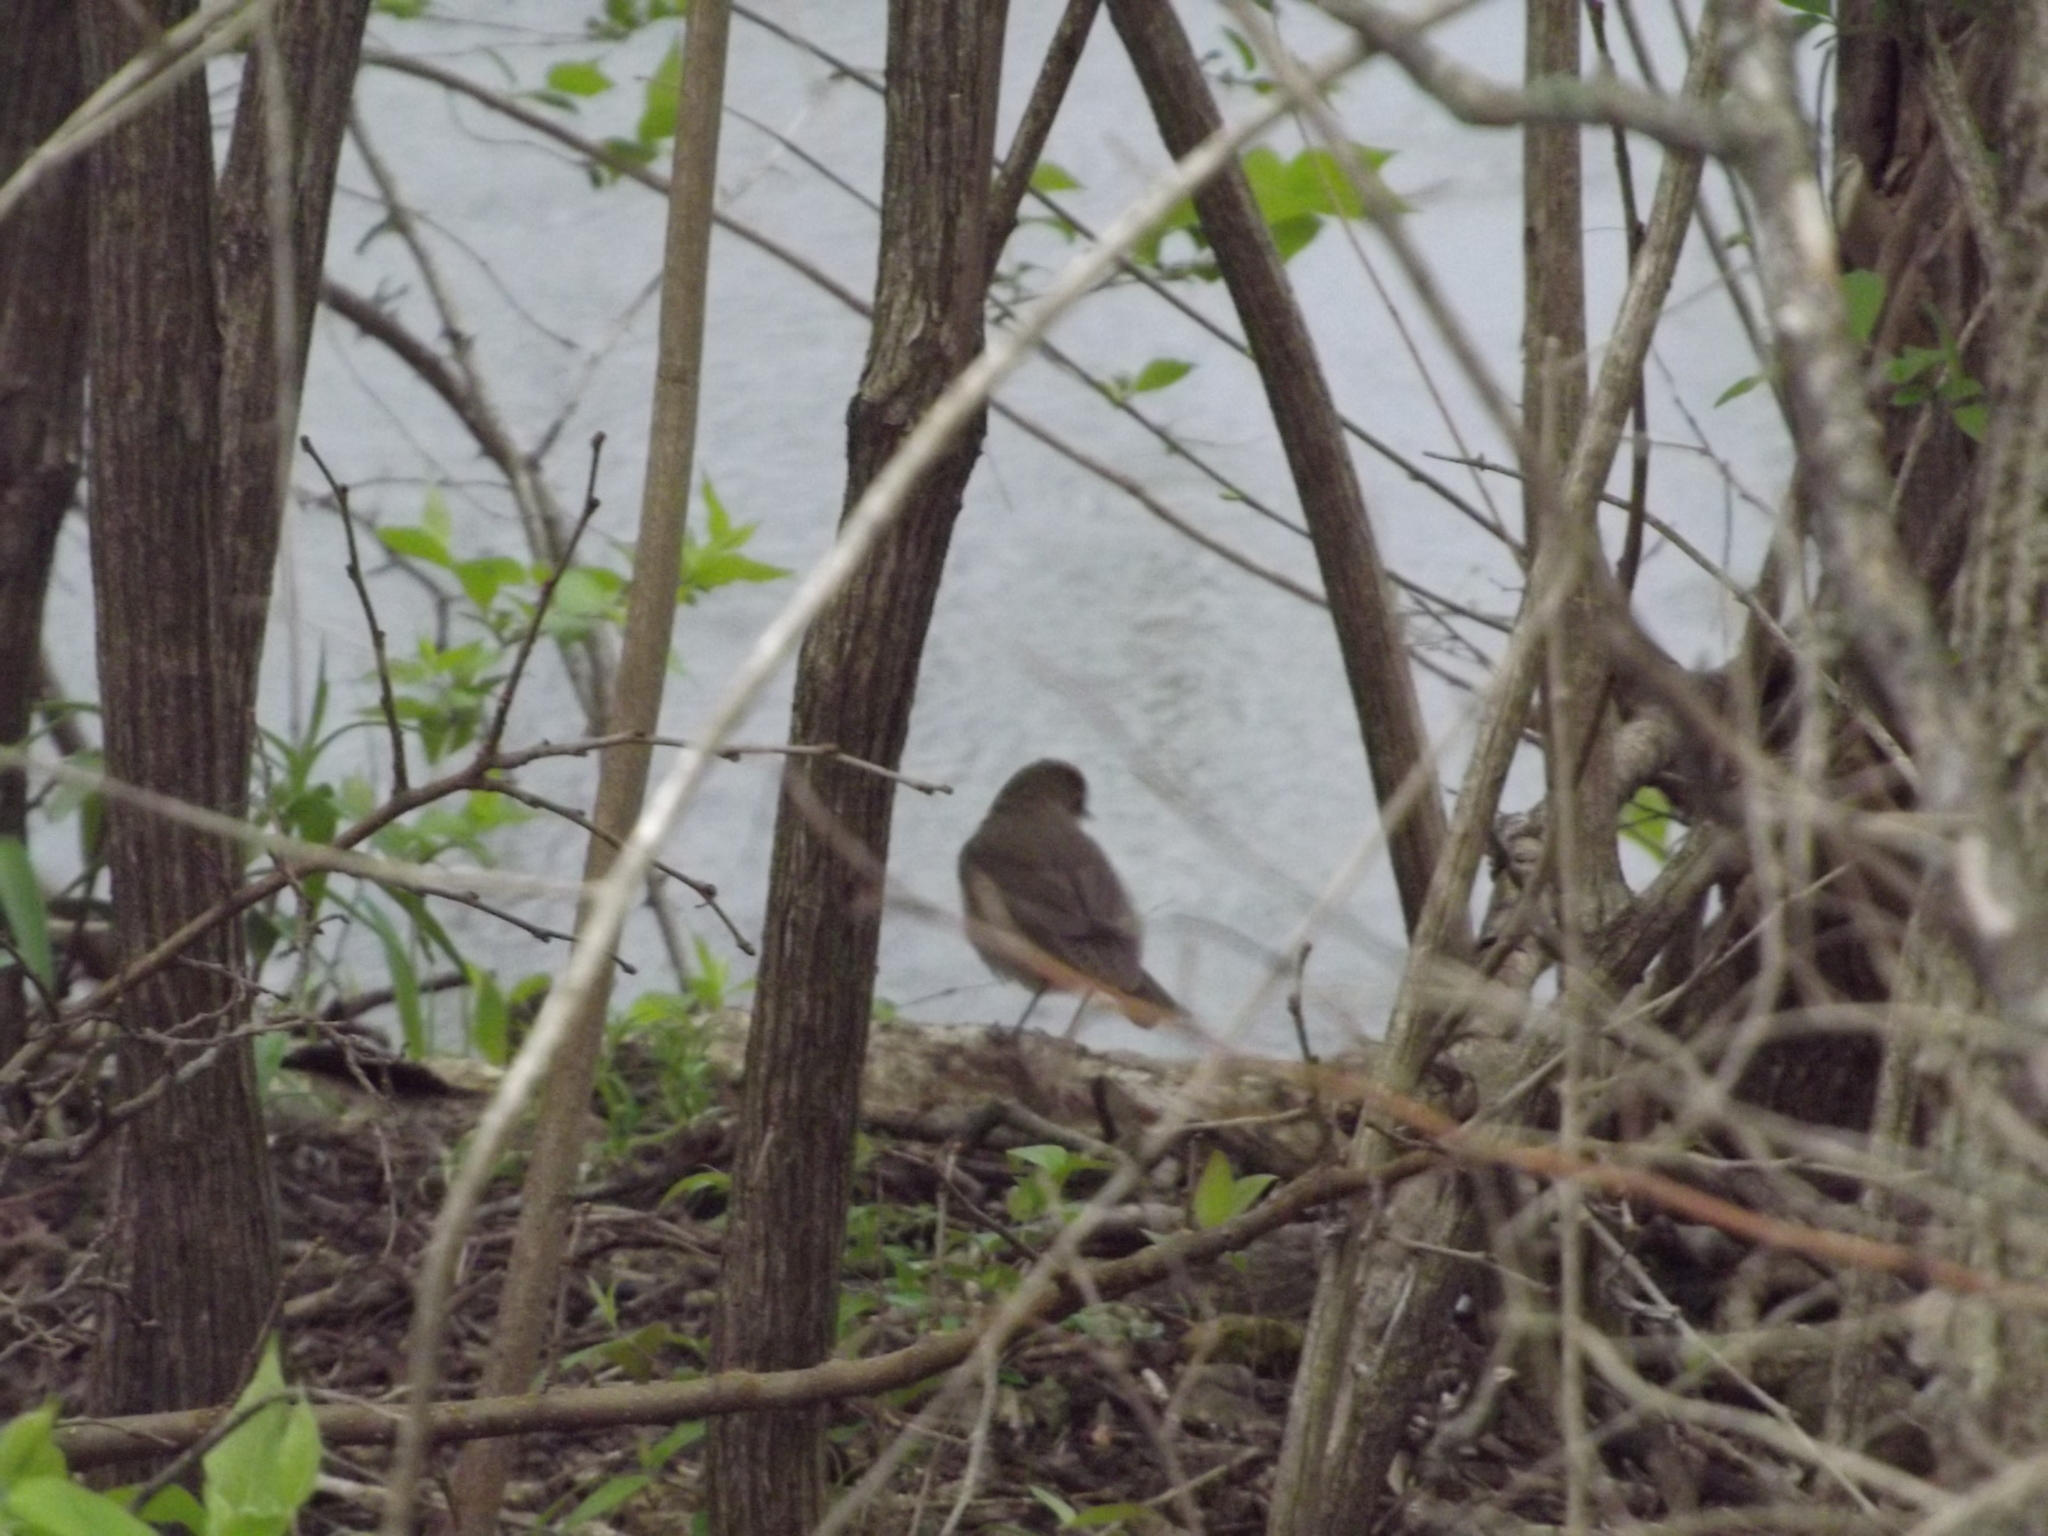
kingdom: Animalia
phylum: Chordata
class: Aves
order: Passeriformes
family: Turdidae
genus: Catharus
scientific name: Catharus ustulatus
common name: Swainson's thrush
